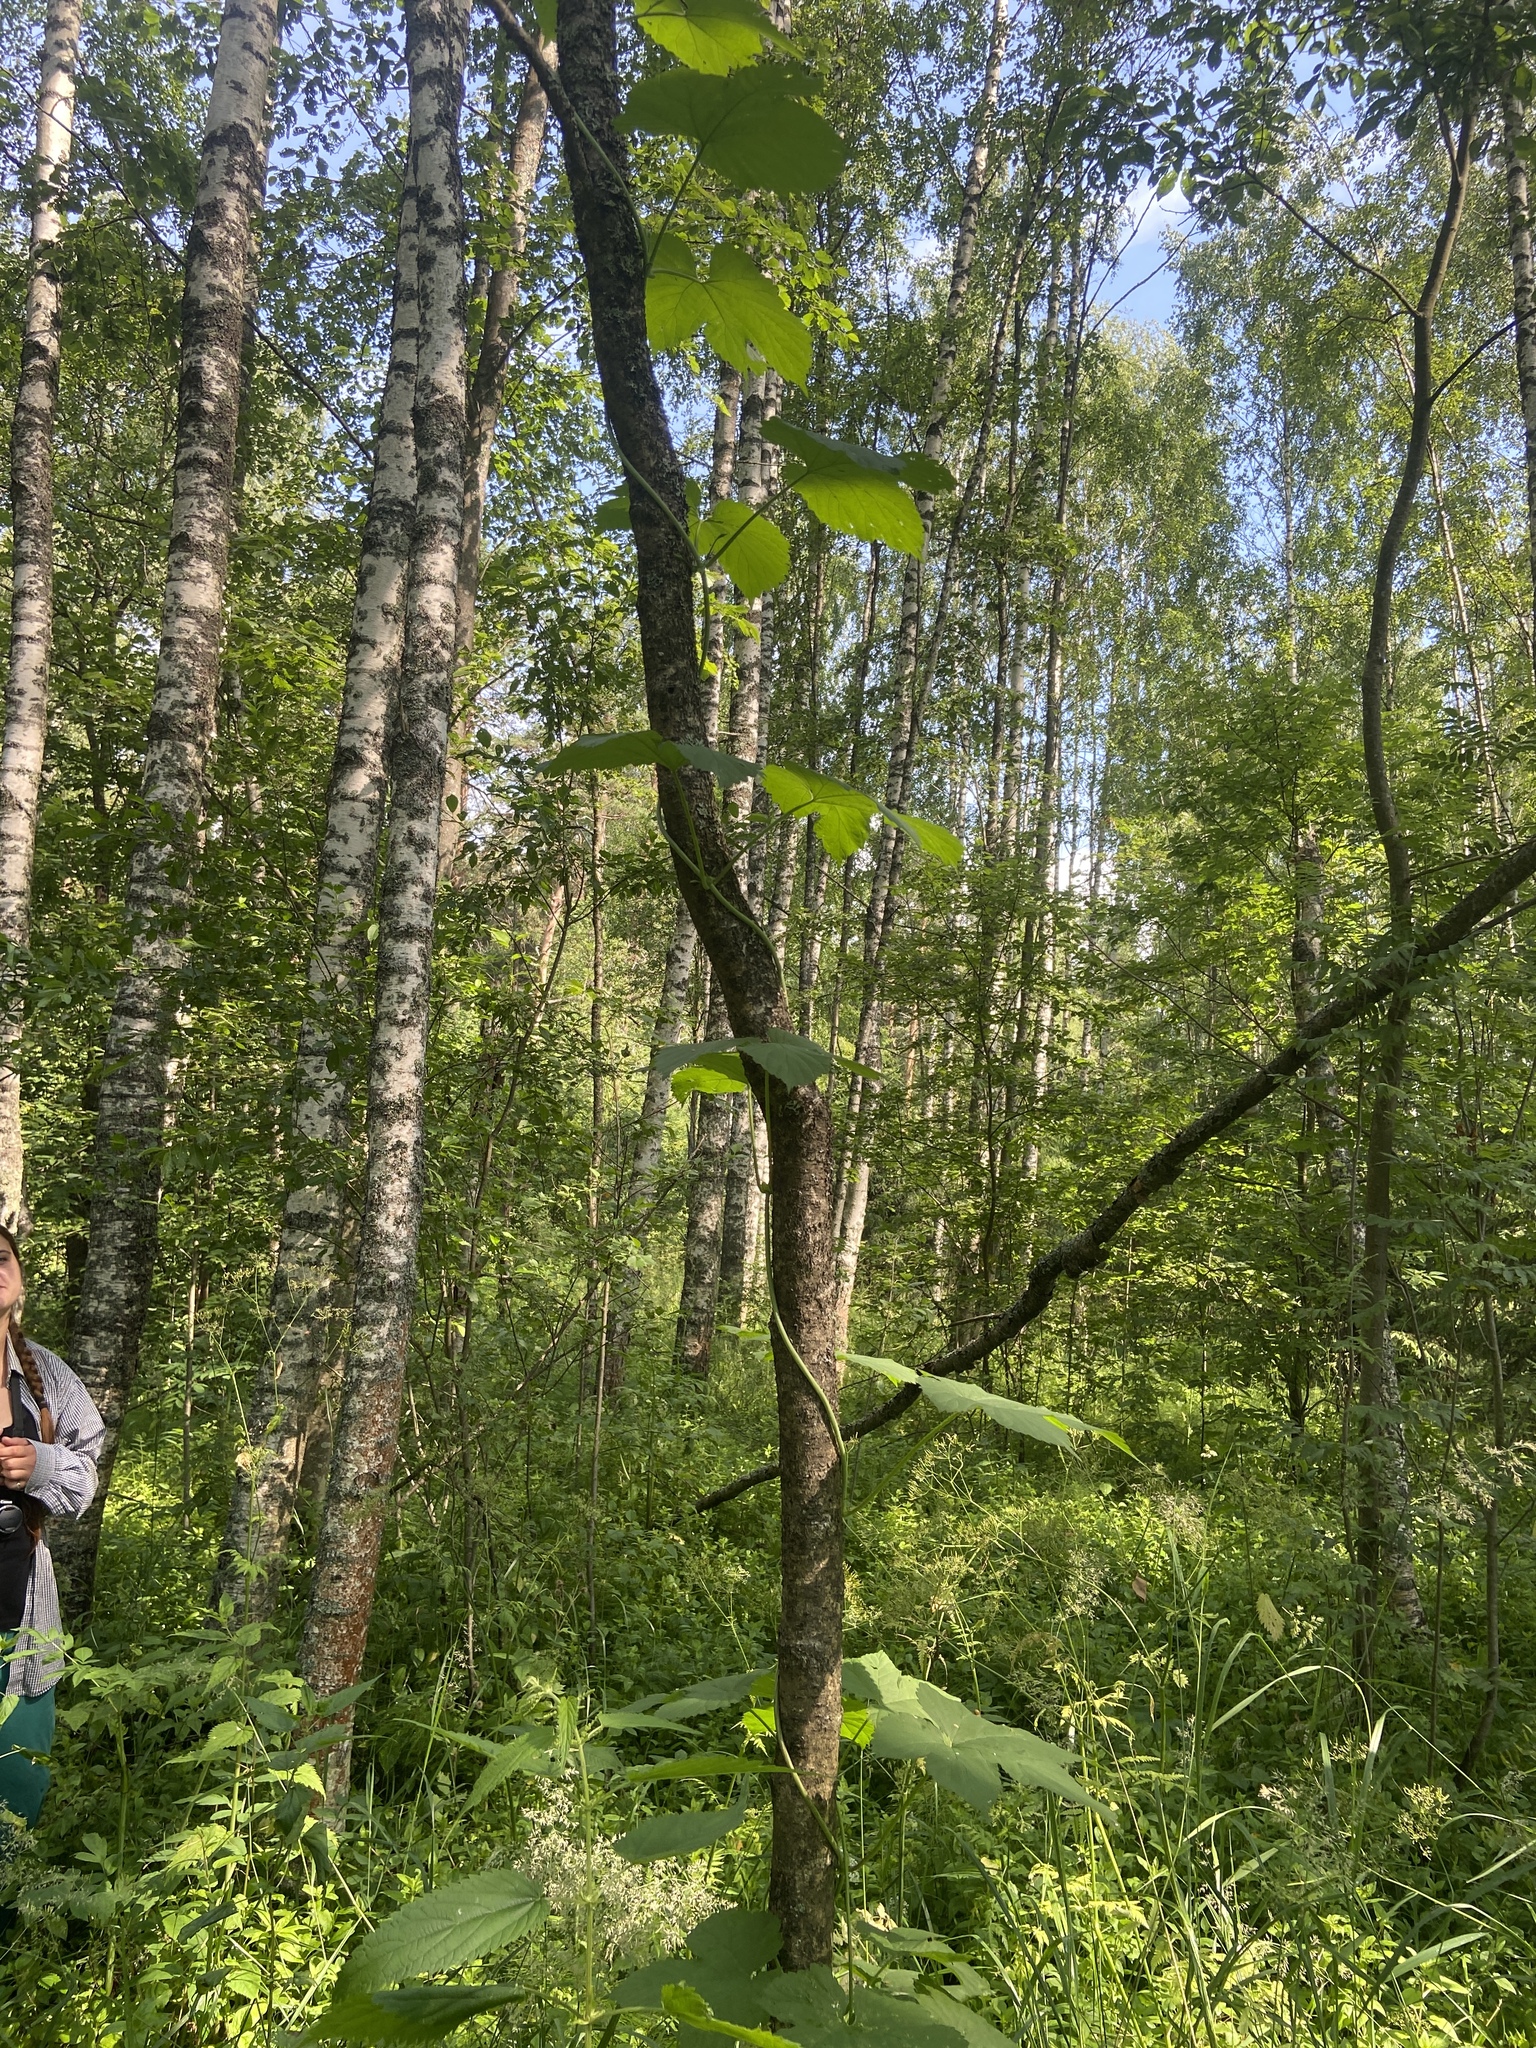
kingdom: Plantae
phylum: Tracheophyta
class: Magnoliopsida
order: Rosales
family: Cannabaceae
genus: Humulus
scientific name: Humulus lupulus
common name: Hop
